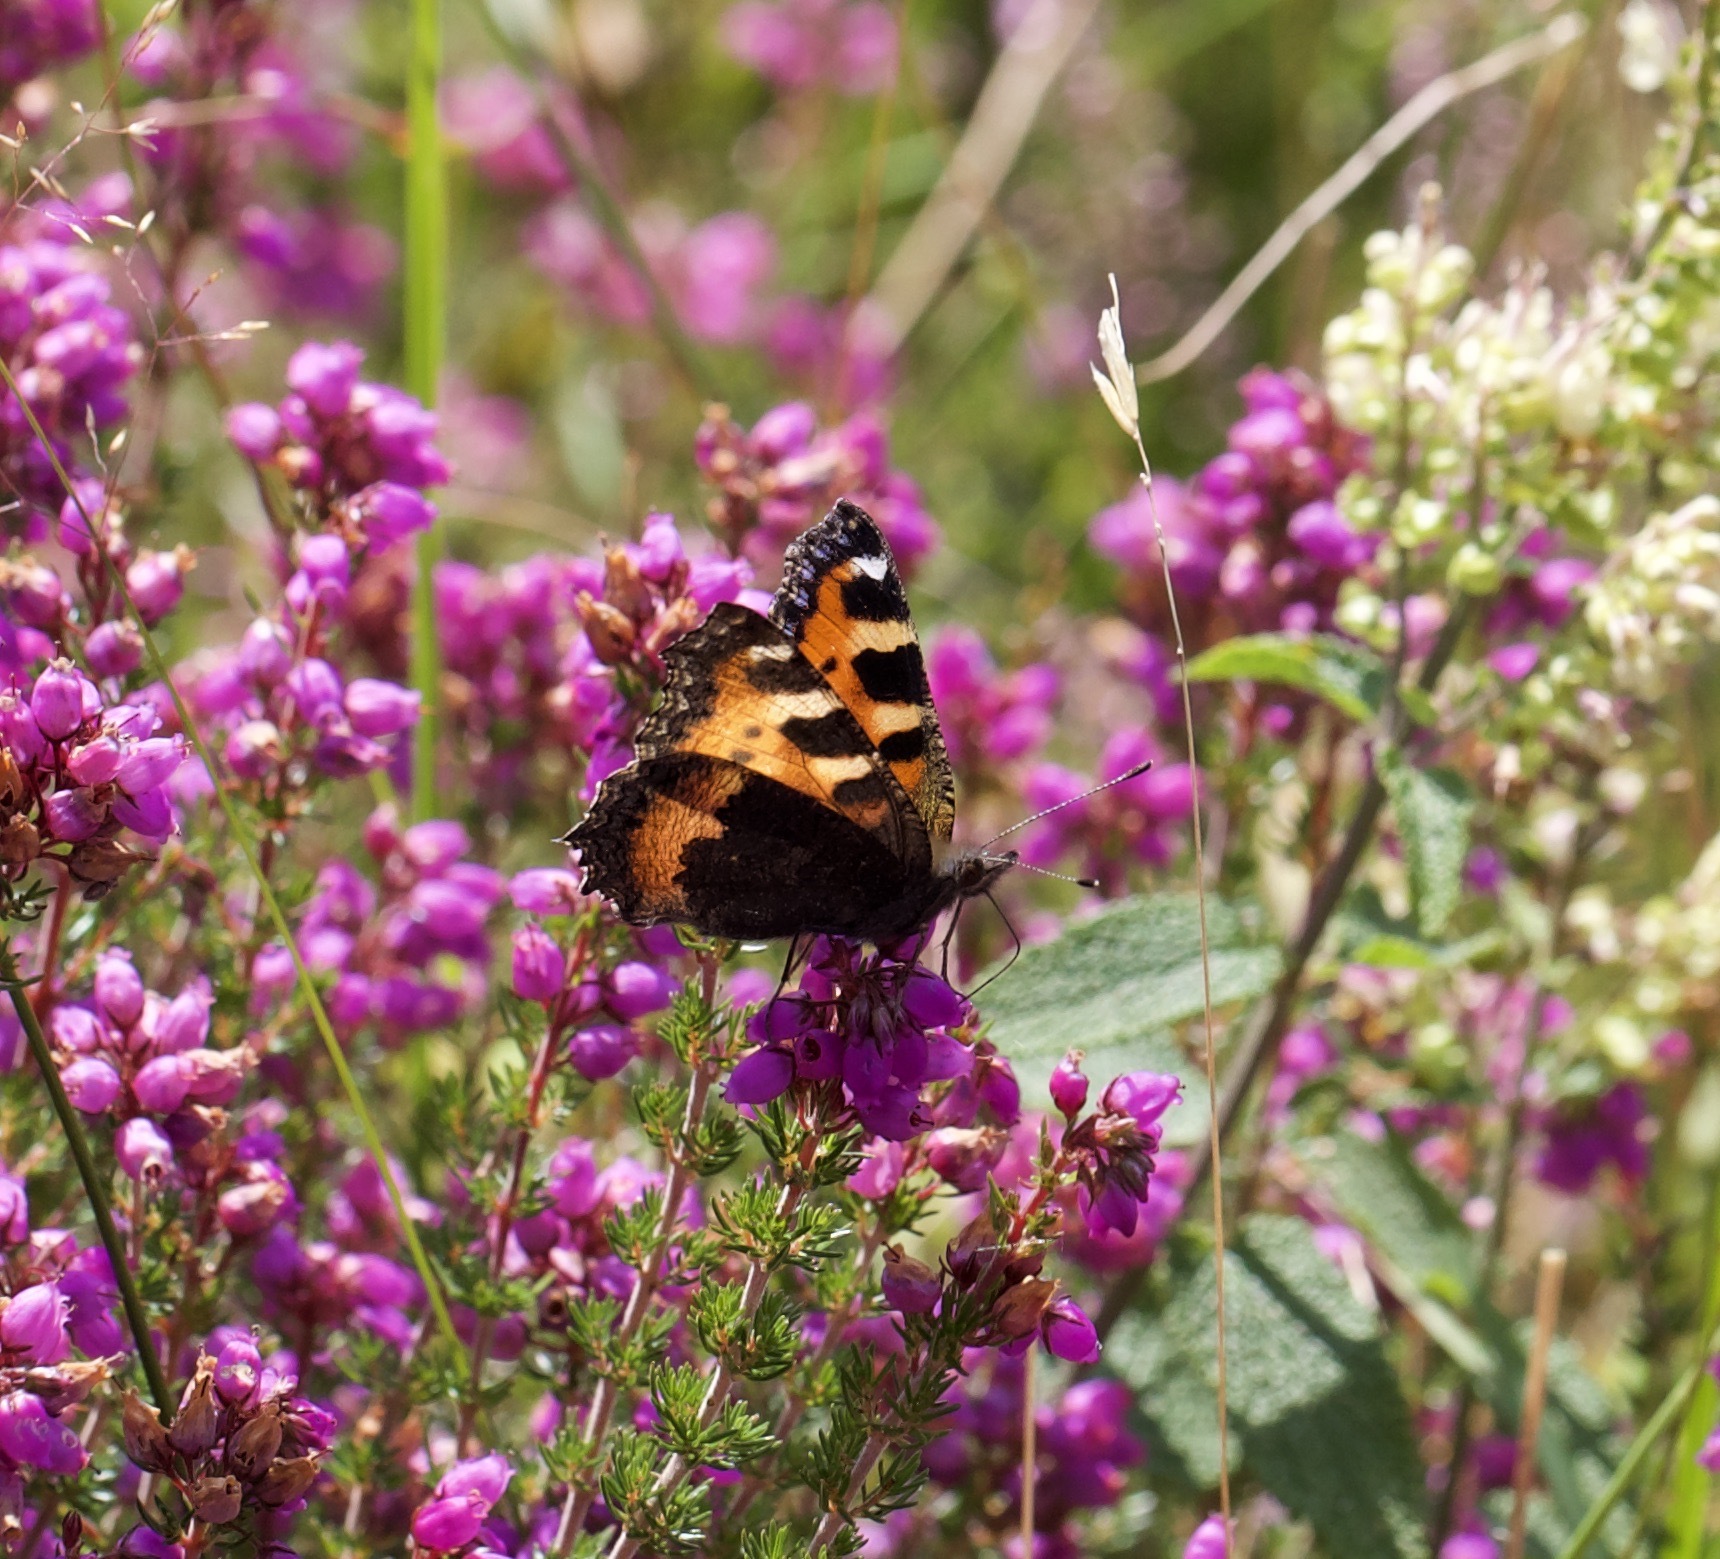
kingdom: Animalia
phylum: Arthropoda
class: Insecta
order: Lepidoptera
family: Nymphalidae
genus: Aglais
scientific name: Aglais urticae
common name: Small tortoiseshell
